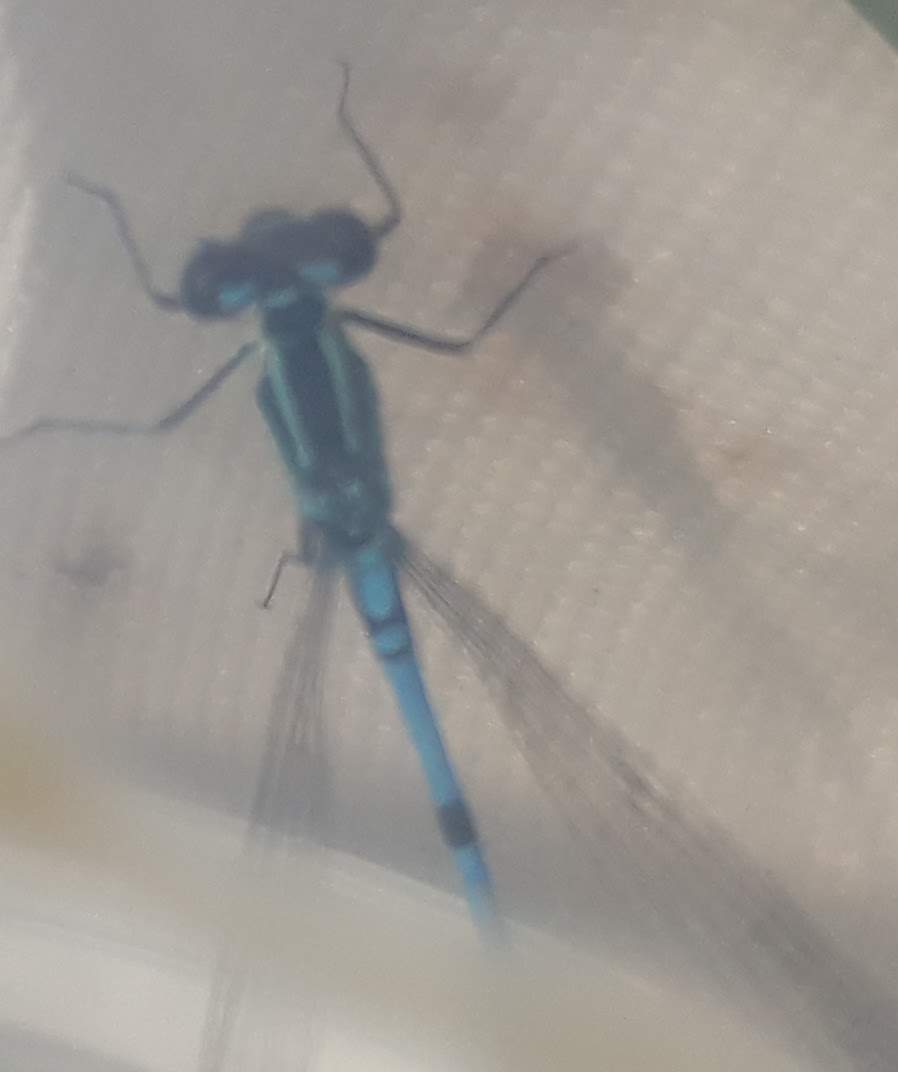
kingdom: Animalia
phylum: Arthropoda
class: Insecta
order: Odonata
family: Coenagrionidae
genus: Coenagrion
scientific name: Coenagrion puella
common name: Azure damselfly
